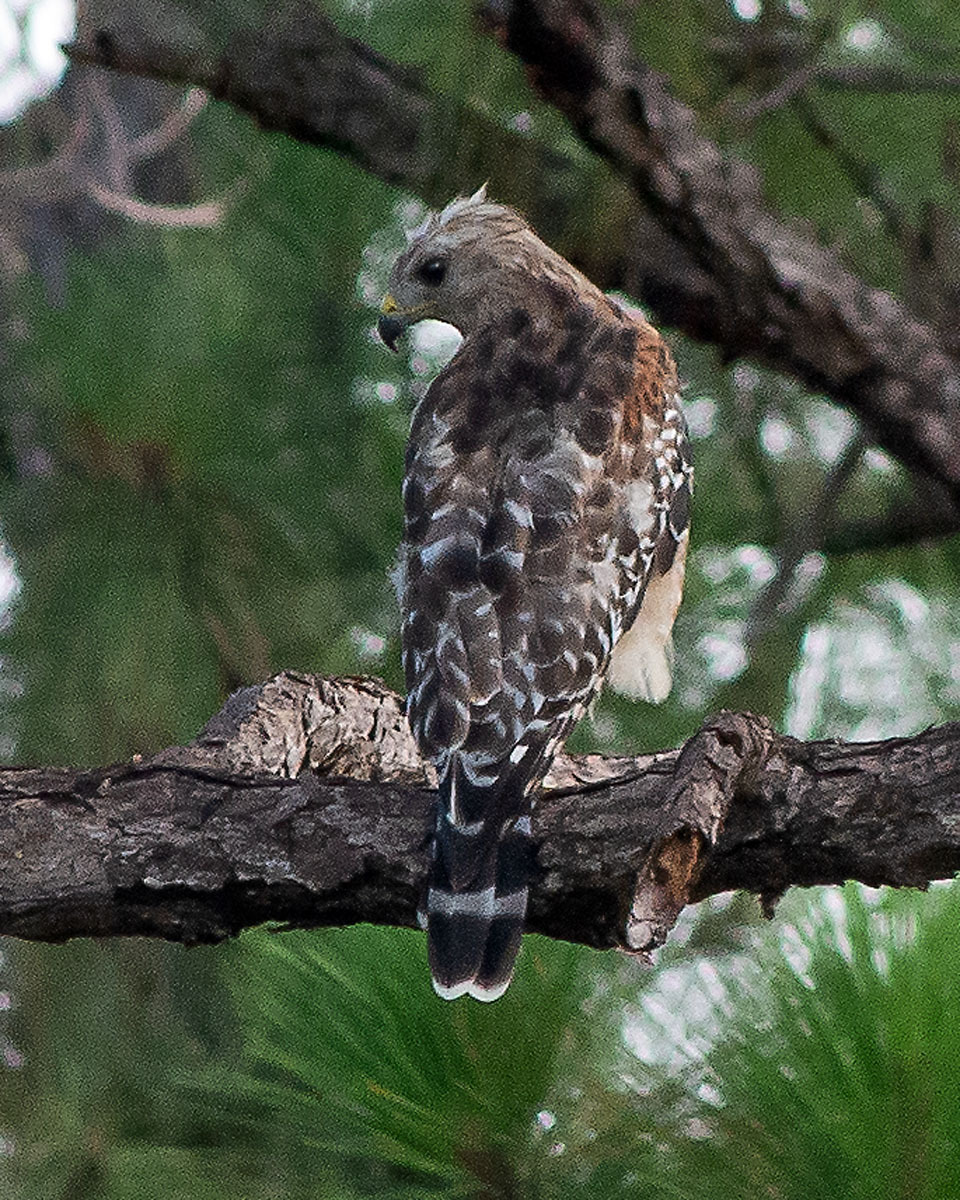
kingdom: Animalia
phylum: Chordata
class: Aves
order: Accipitriformes
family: Accipitridae
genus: Buteo
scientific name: Buteo lineatus
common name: Red-shouldered hawk
